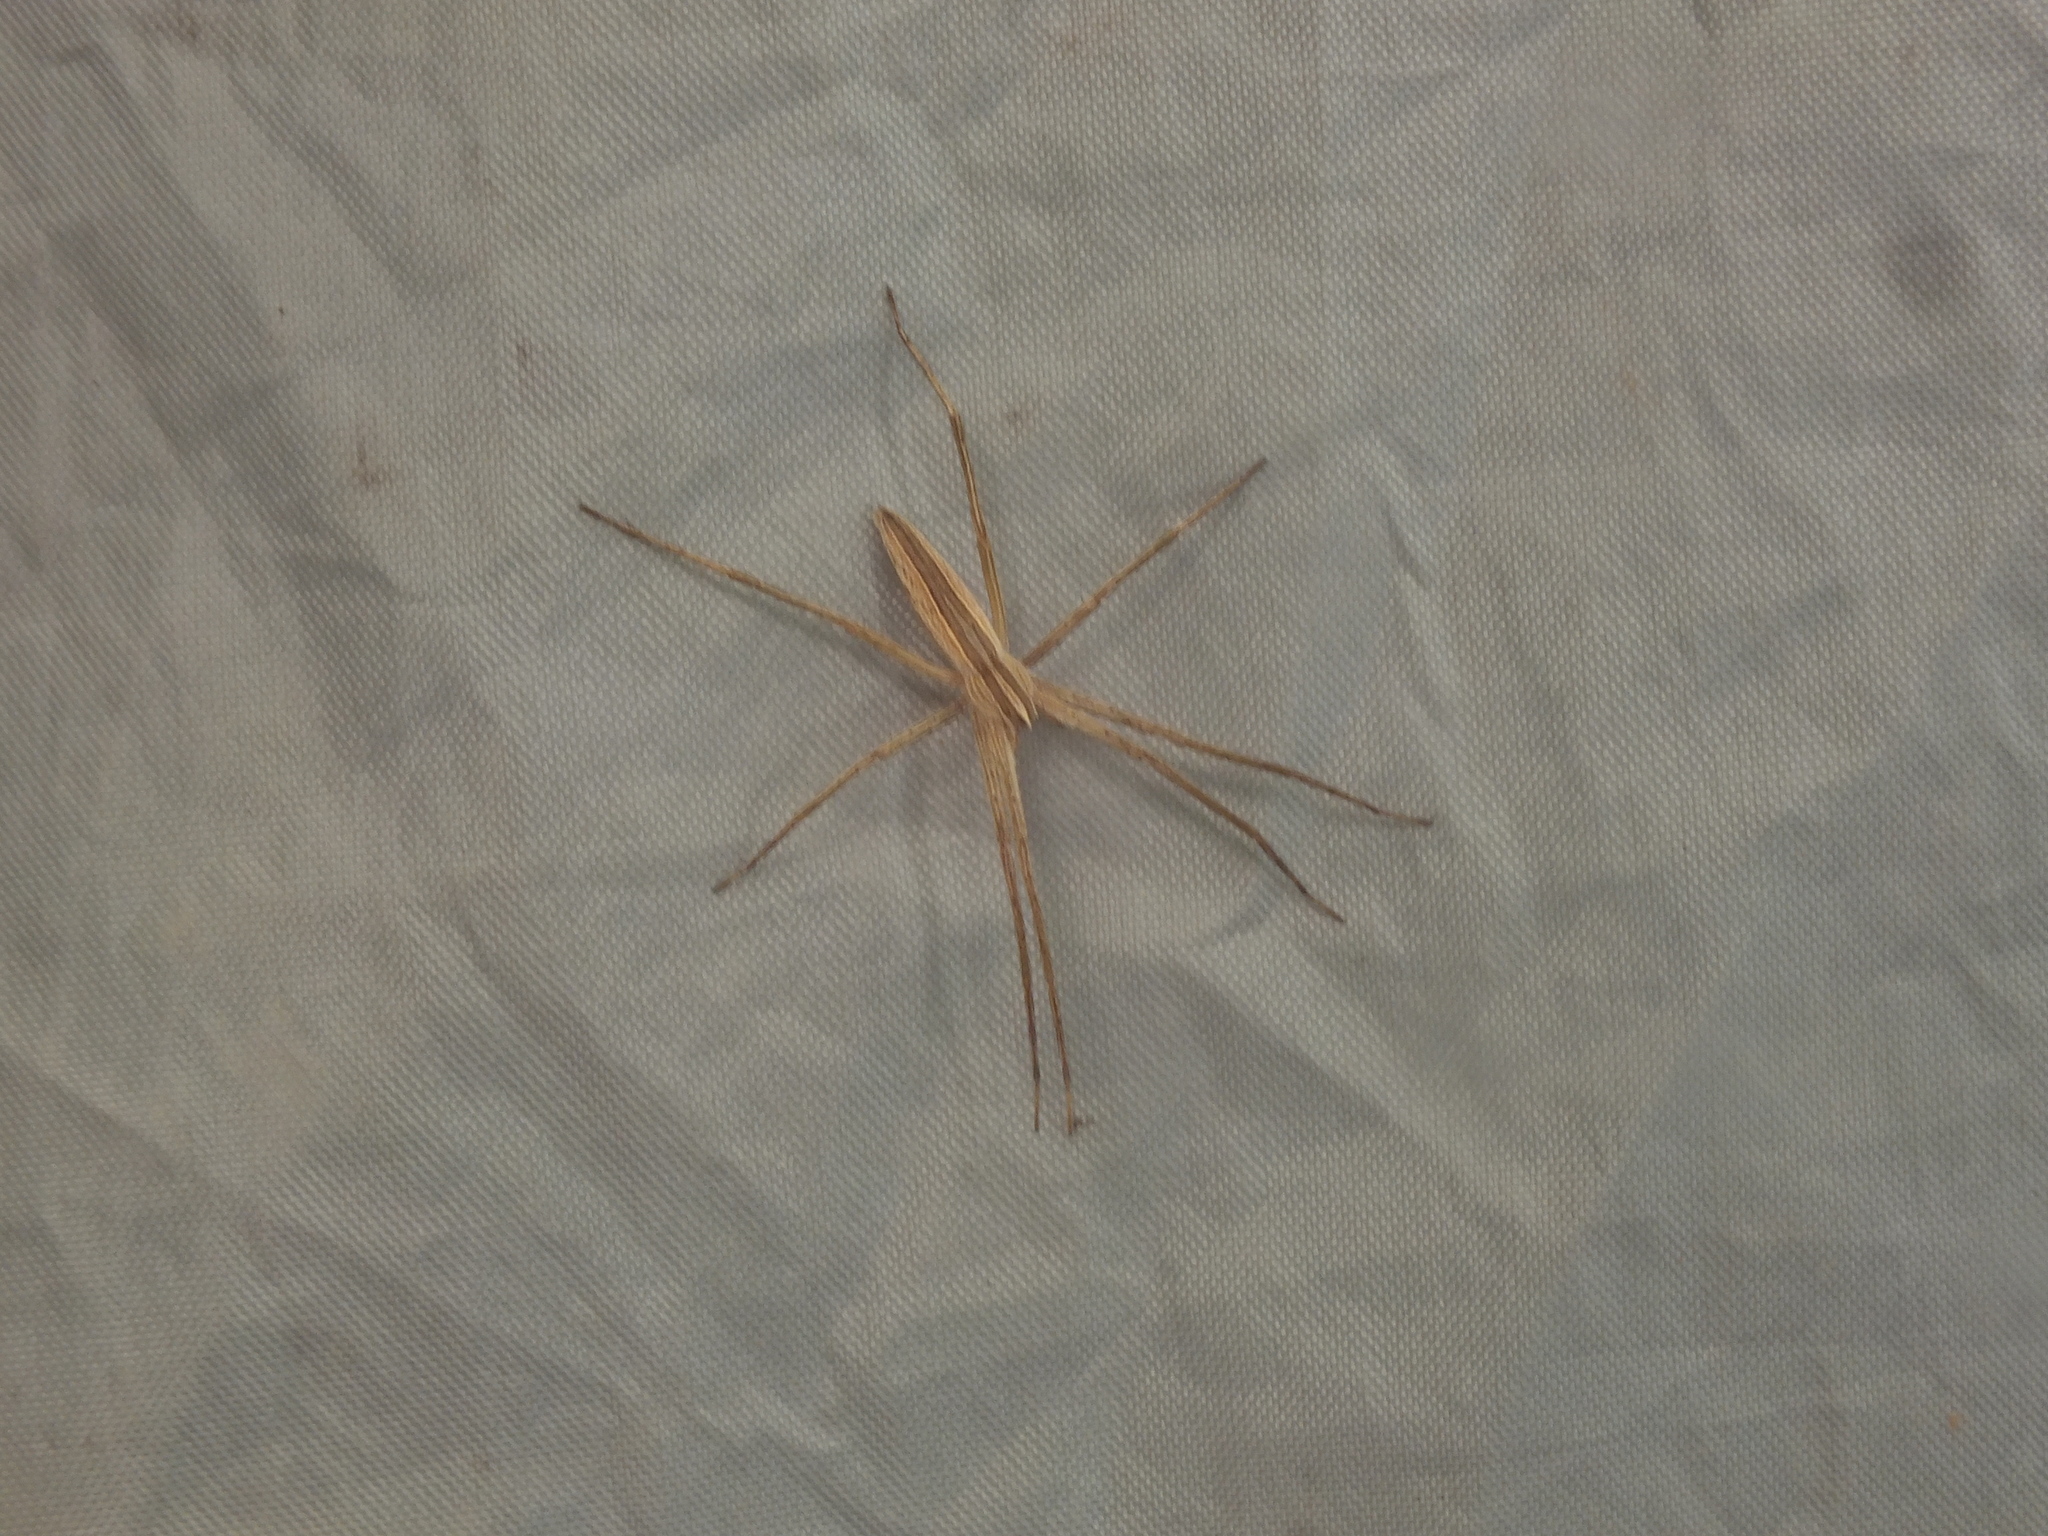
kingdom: Animalia
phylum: Arthropoda
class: Arachnida
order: Araneae
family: Pisauridae
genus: Pisaurina
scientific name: Pisaurina dubia
